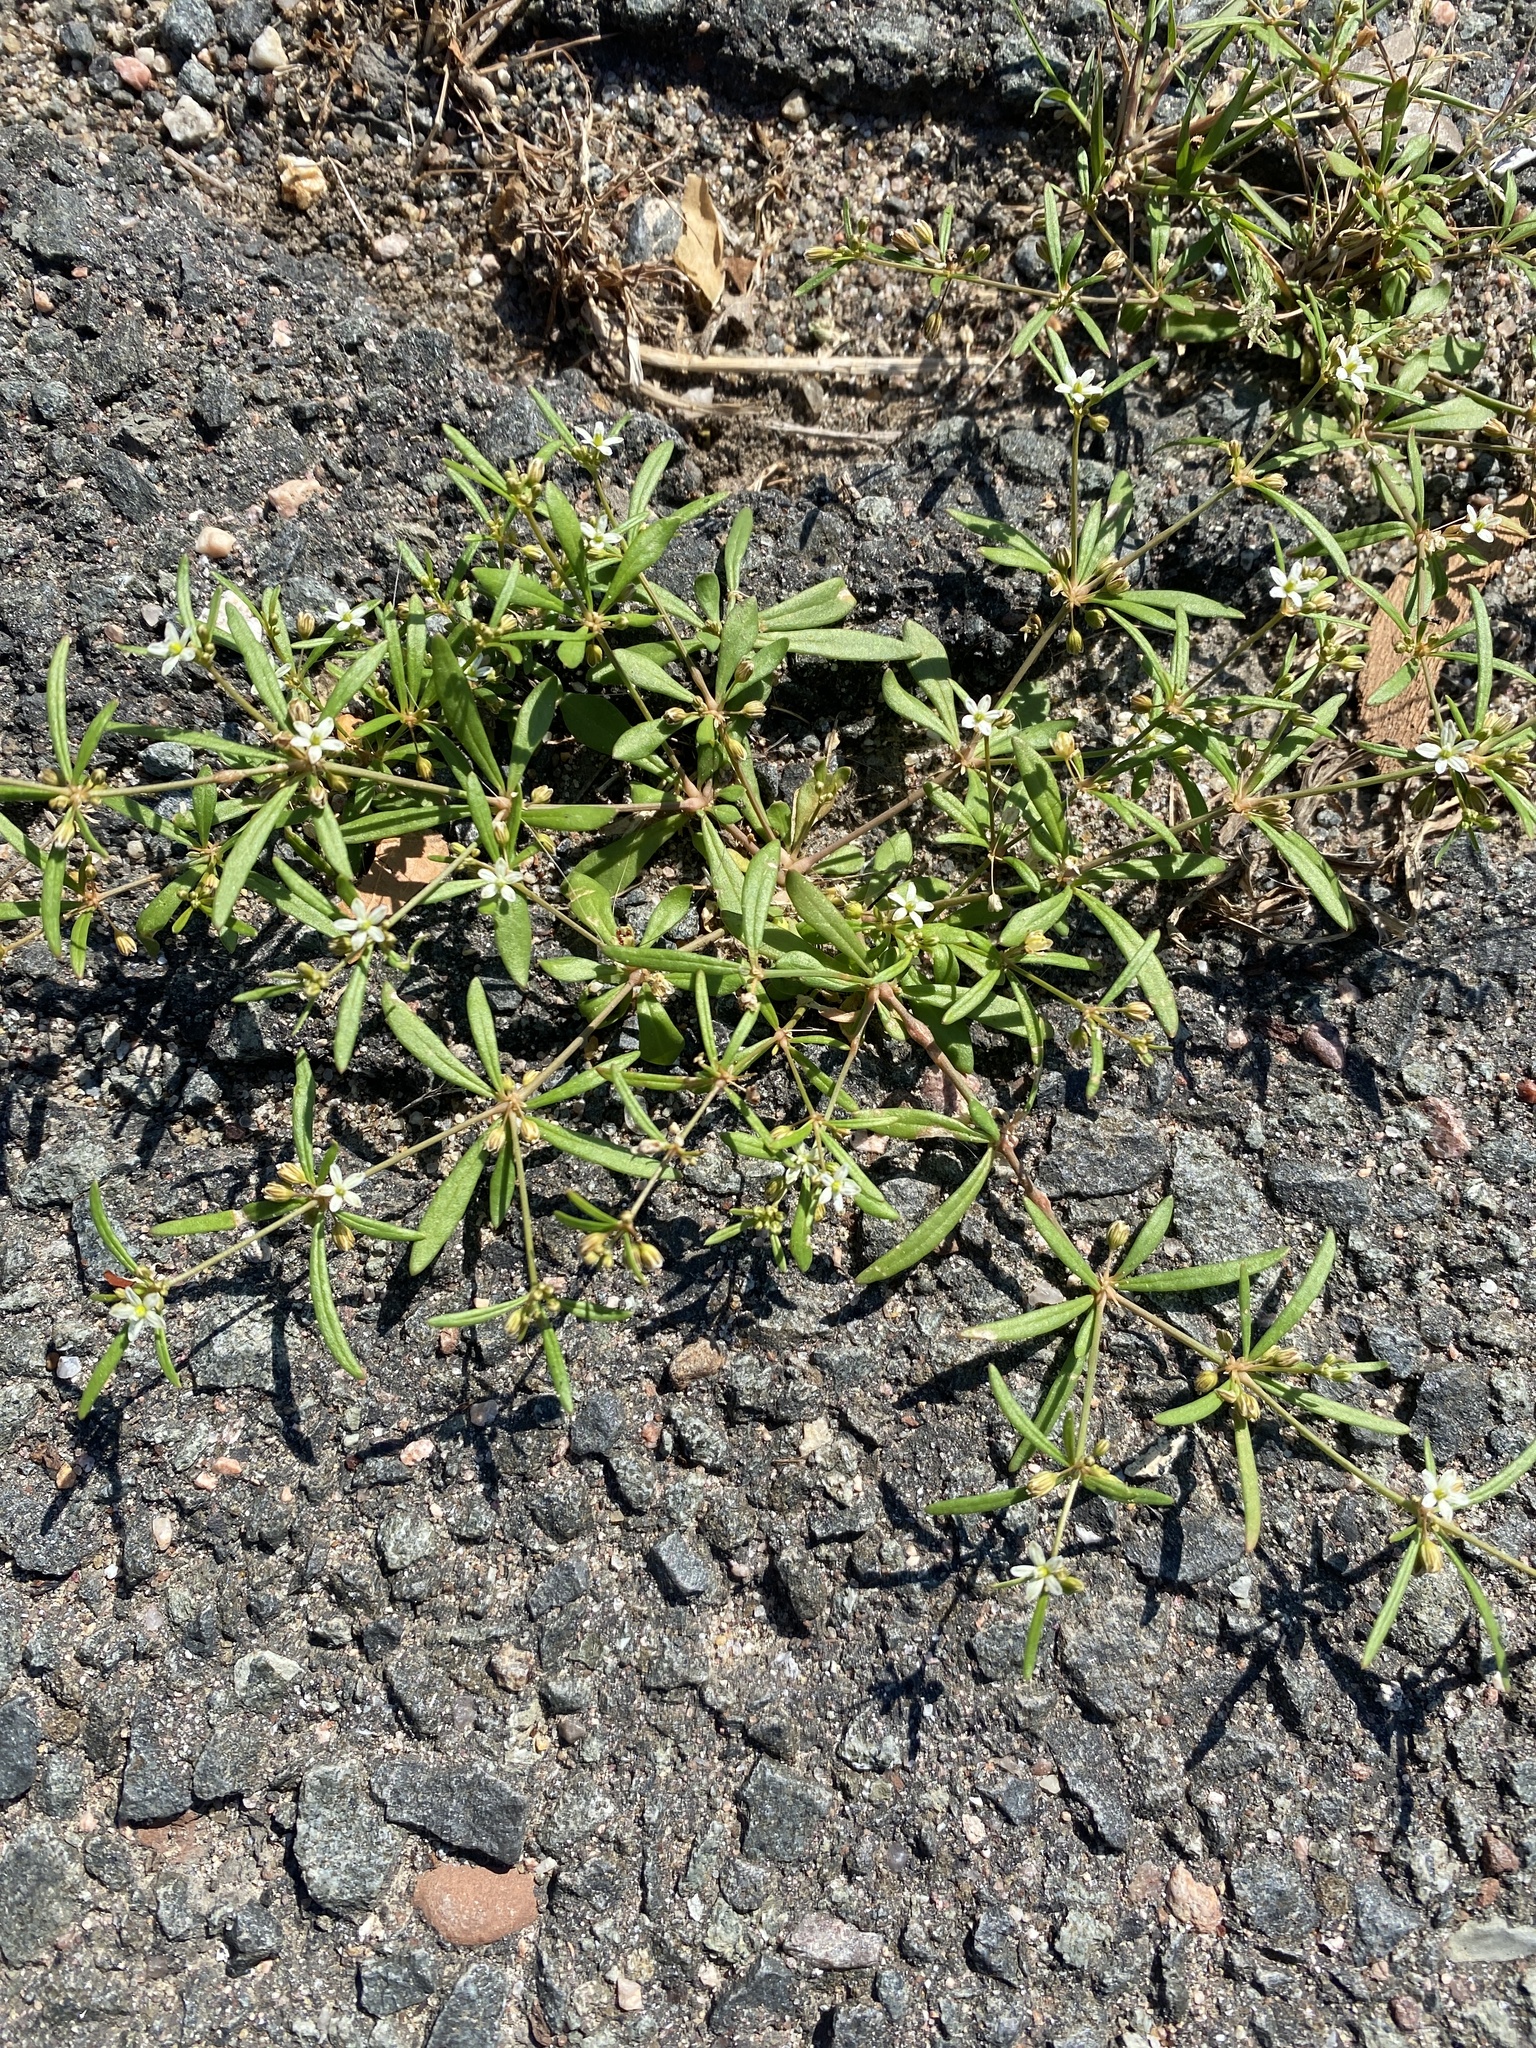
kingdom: Plantae
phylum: Tracheophyta
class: Magnoliopsida
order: Caryophyllales
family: Molluginaceae
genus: Mollugo
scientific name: Mollugo verticillata
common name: Green carpetweed
